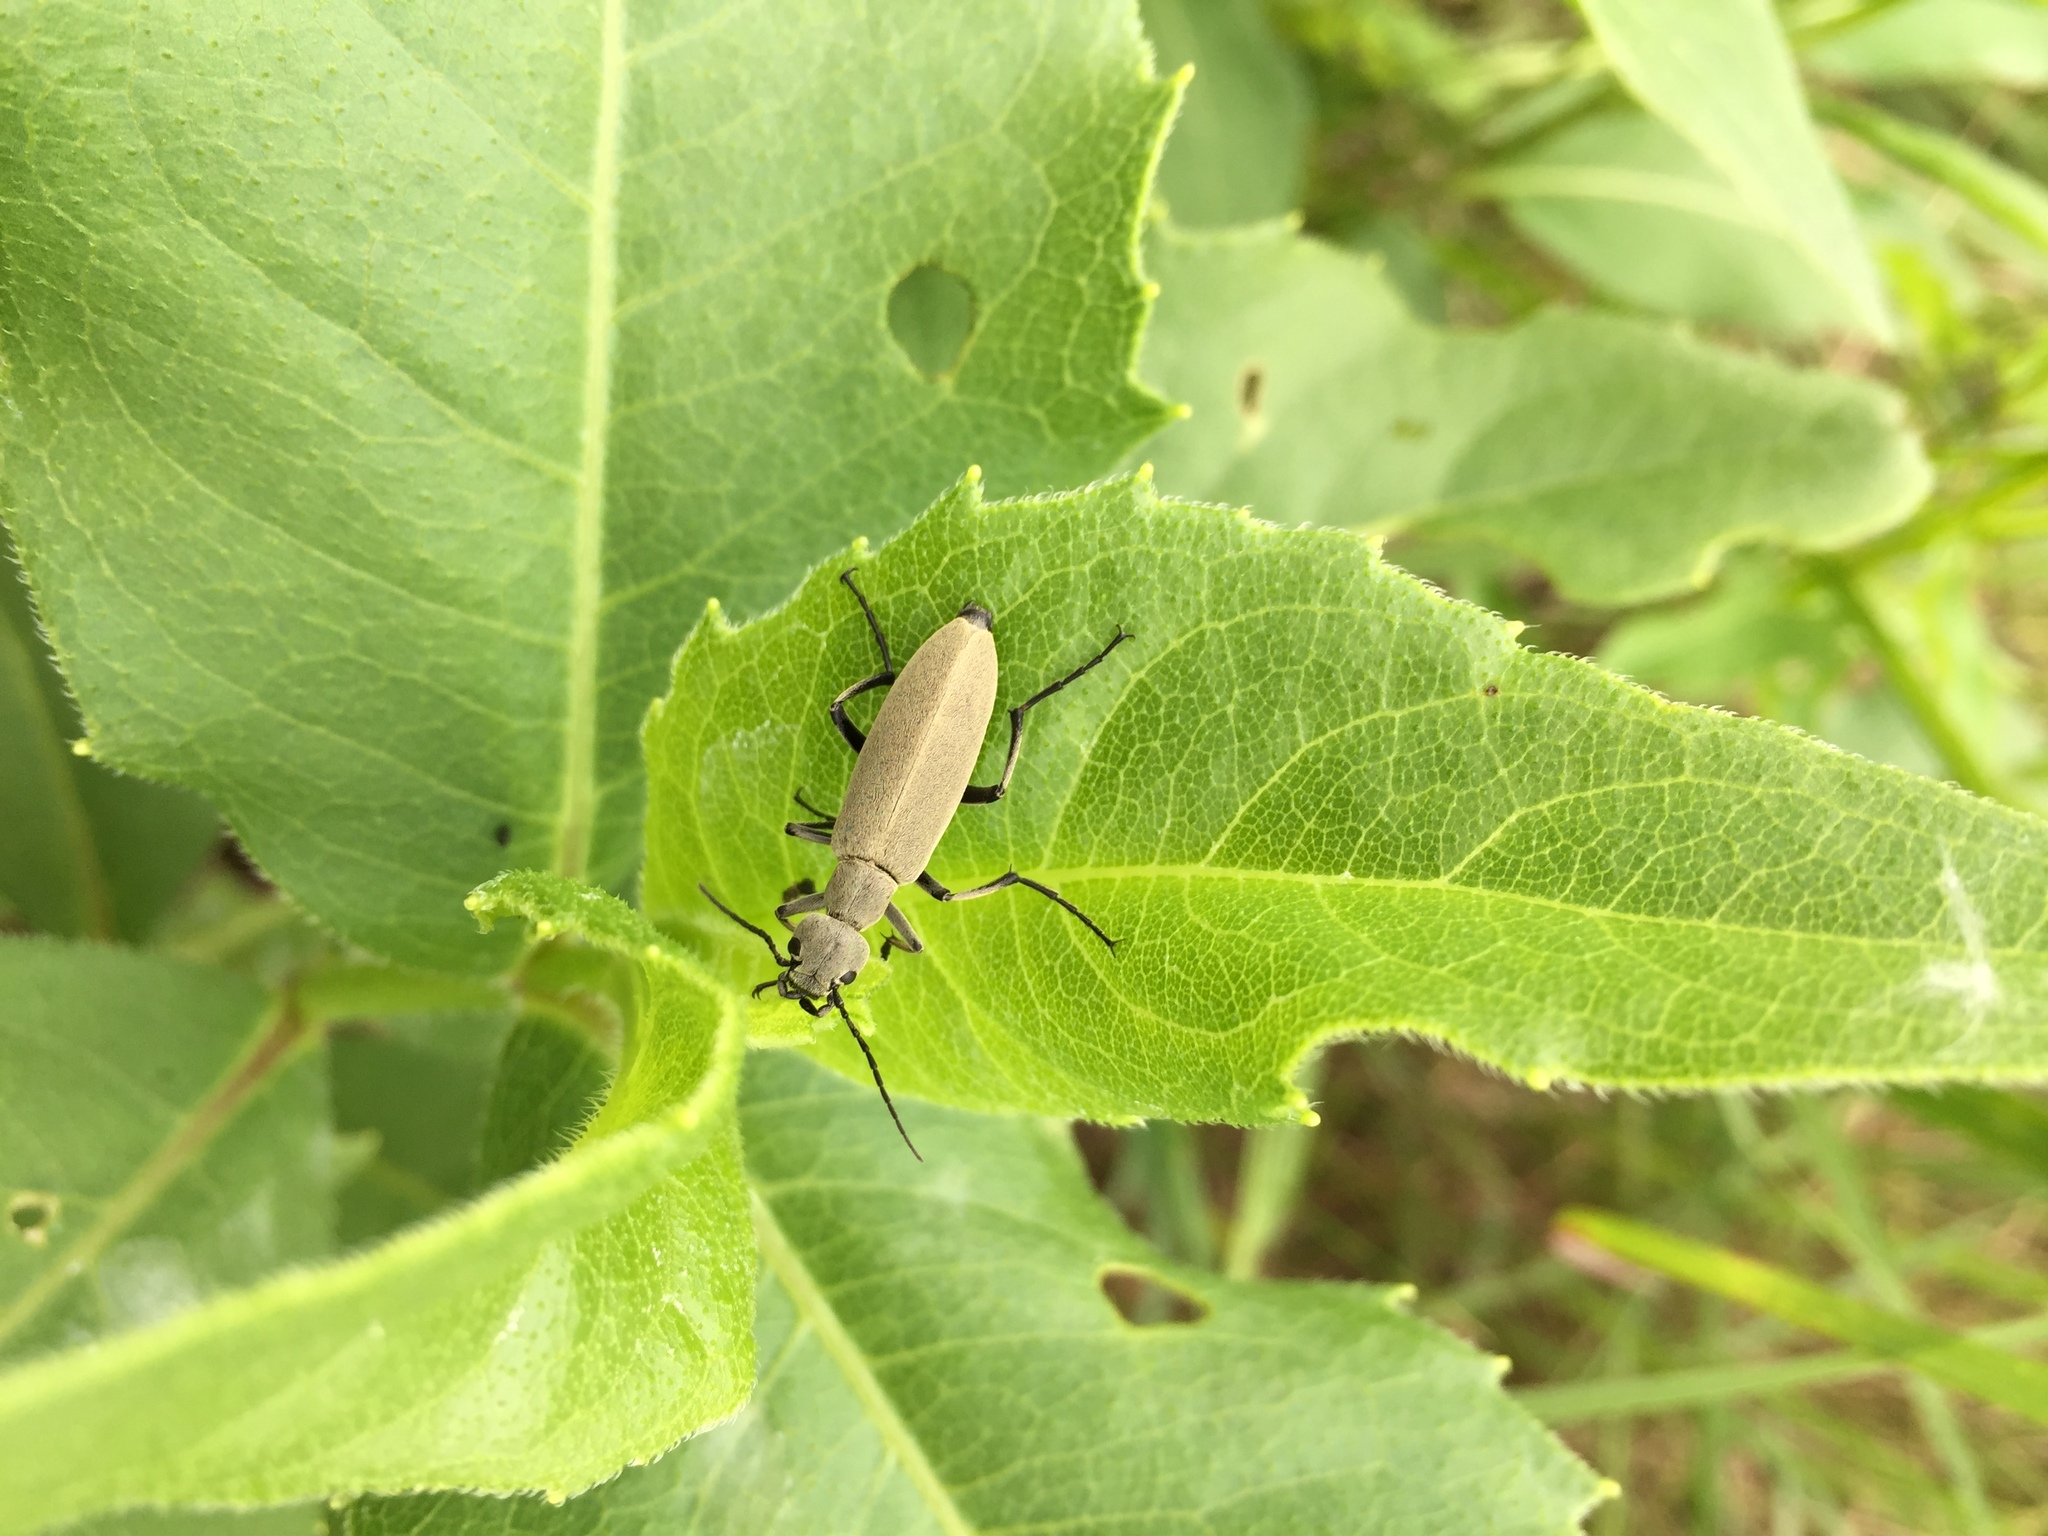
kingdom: Animalia
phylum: Arthropoda
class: Insecta
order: Coleoptera
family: Meloidae
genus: Epicauta
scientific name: Epicauta funebris
